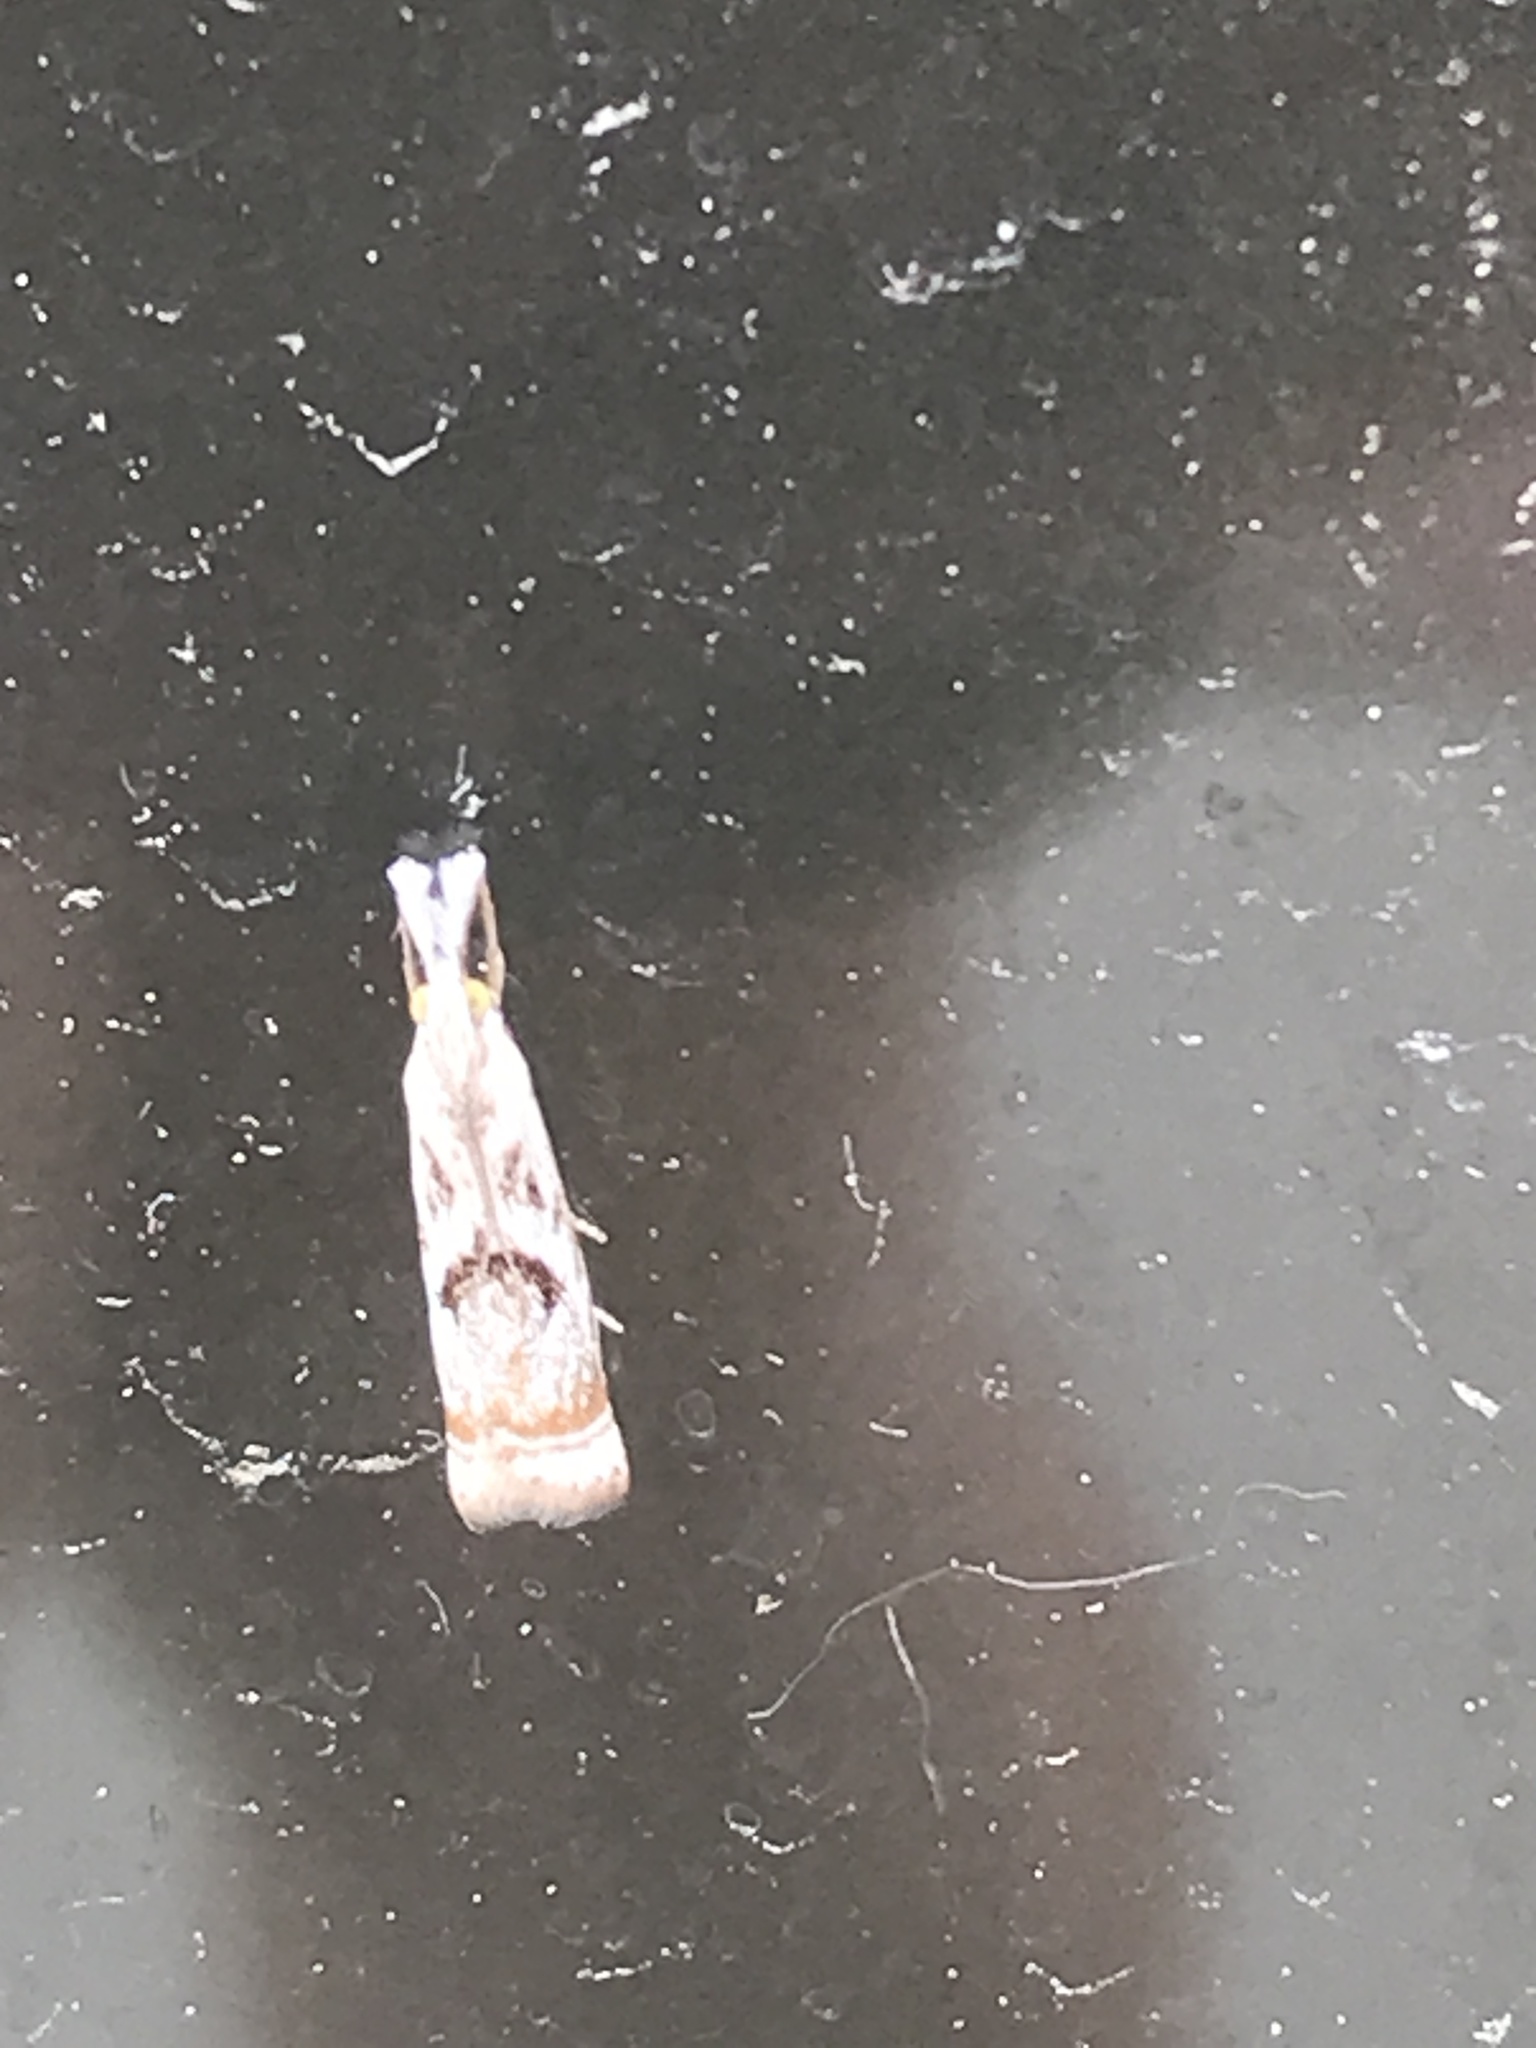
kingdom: Animalia
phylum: Arthropoda
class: Insecta
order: Lepidoptera
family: Crambidae
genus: Microcrambus
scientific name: Microcrambus elegans
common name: Elegant grass-veneer
